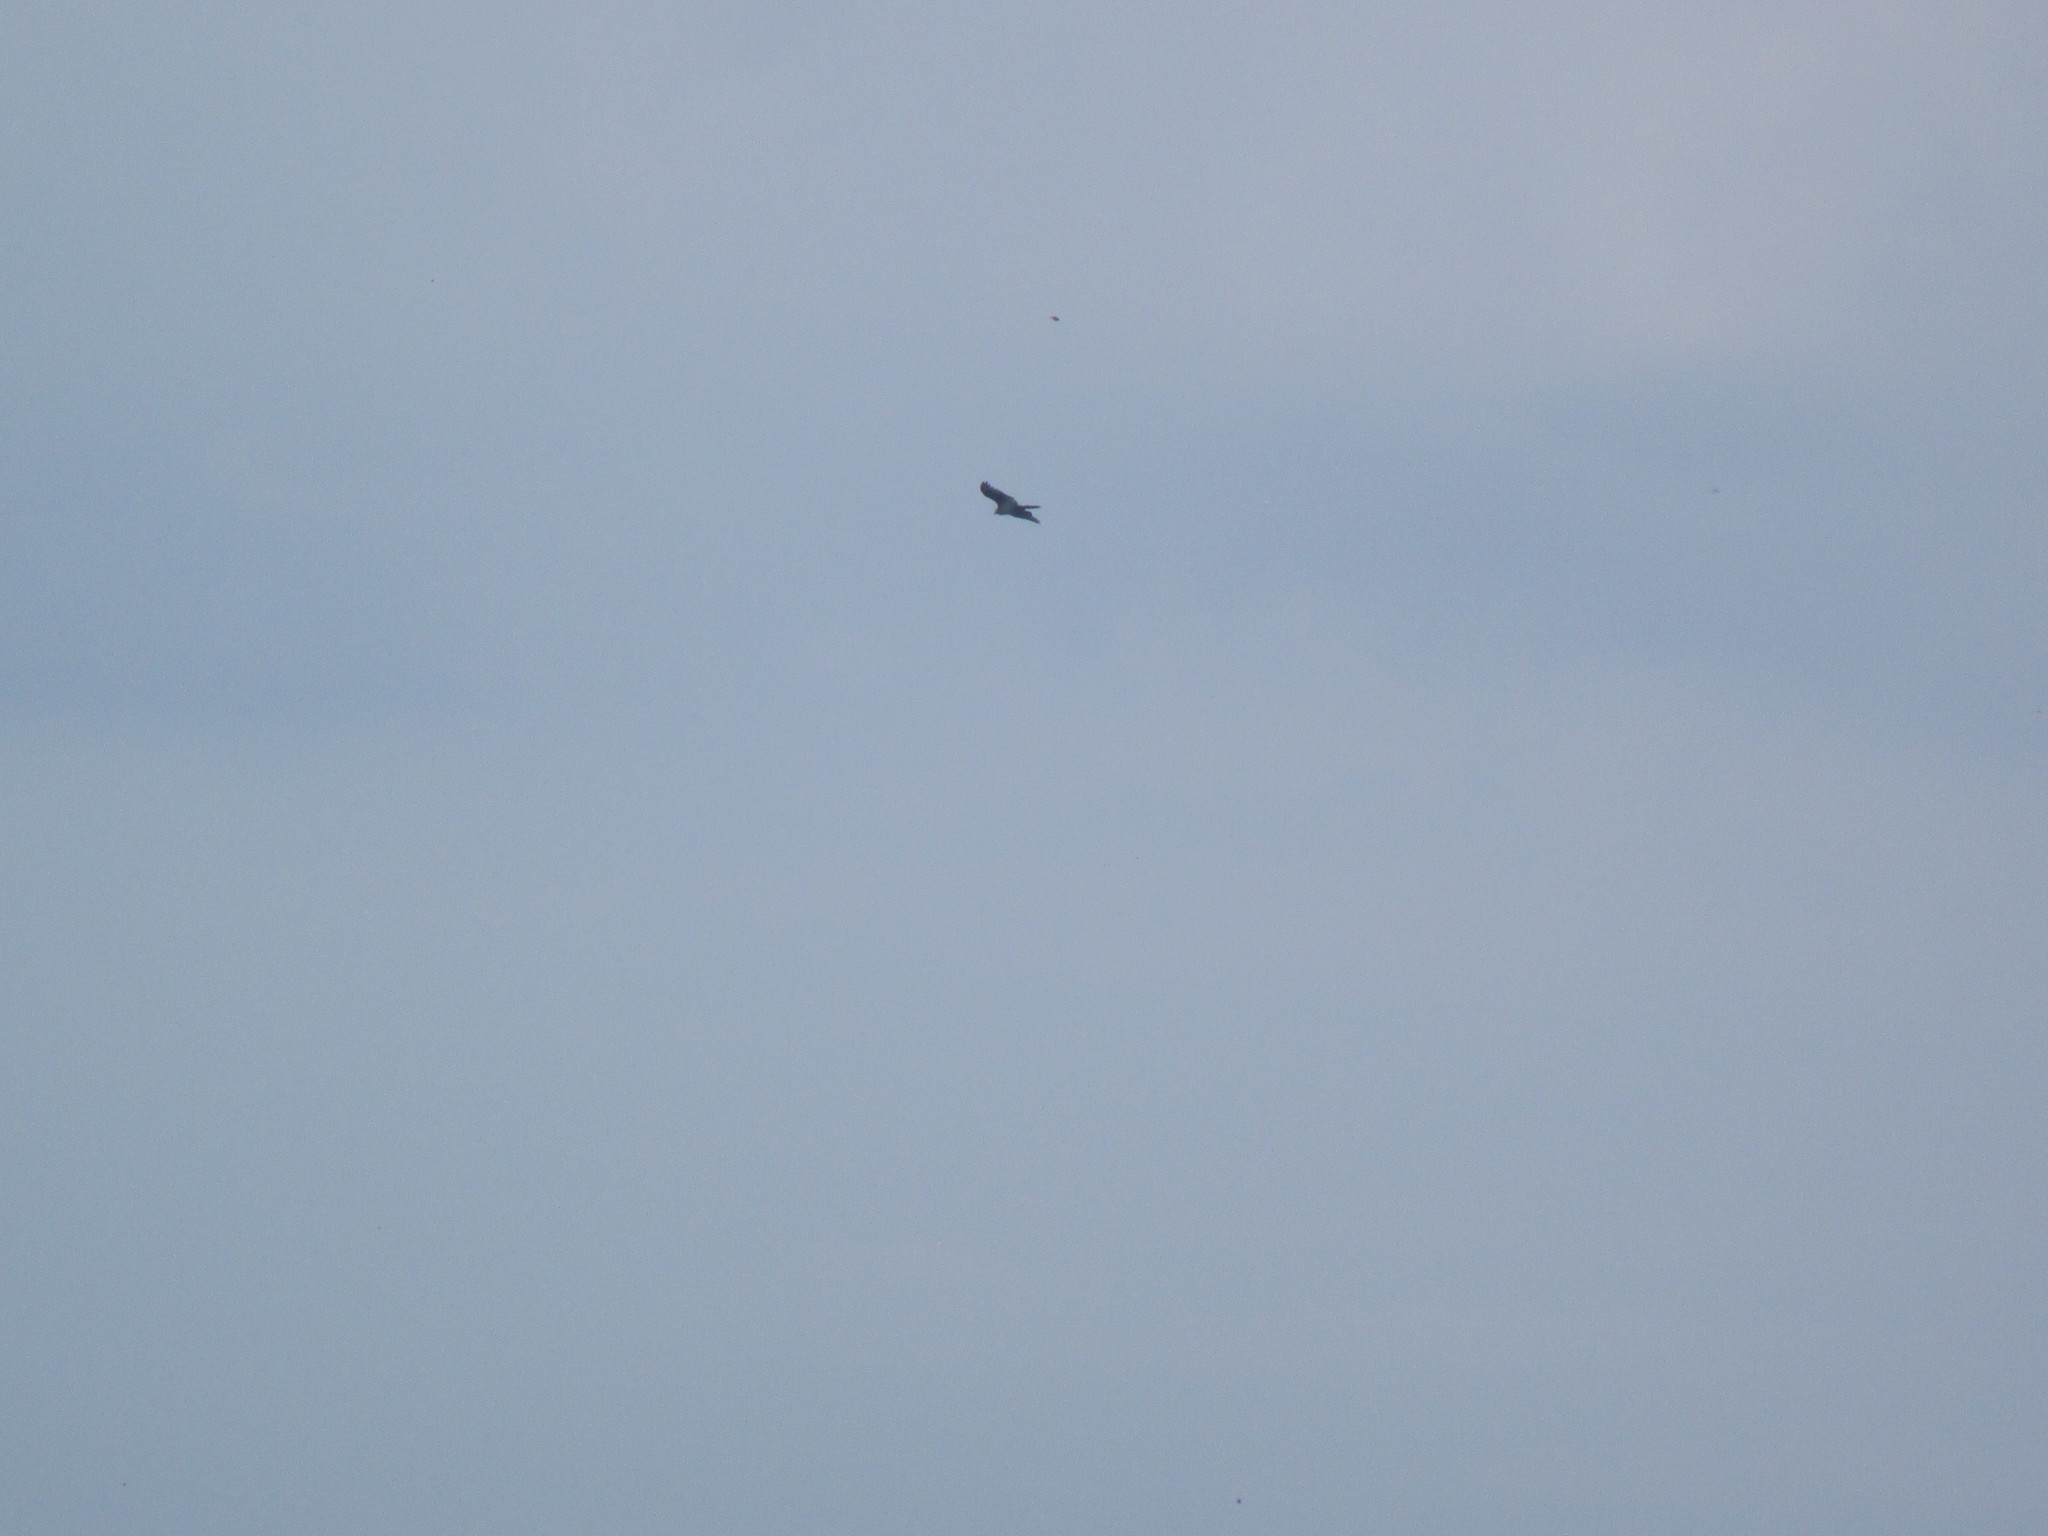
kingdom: Animalia
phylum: Chordata
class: Aves
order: Accipitriformes
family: Pandionidae
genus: Pandion
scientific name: Pandion haliaetus
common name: Osprey
